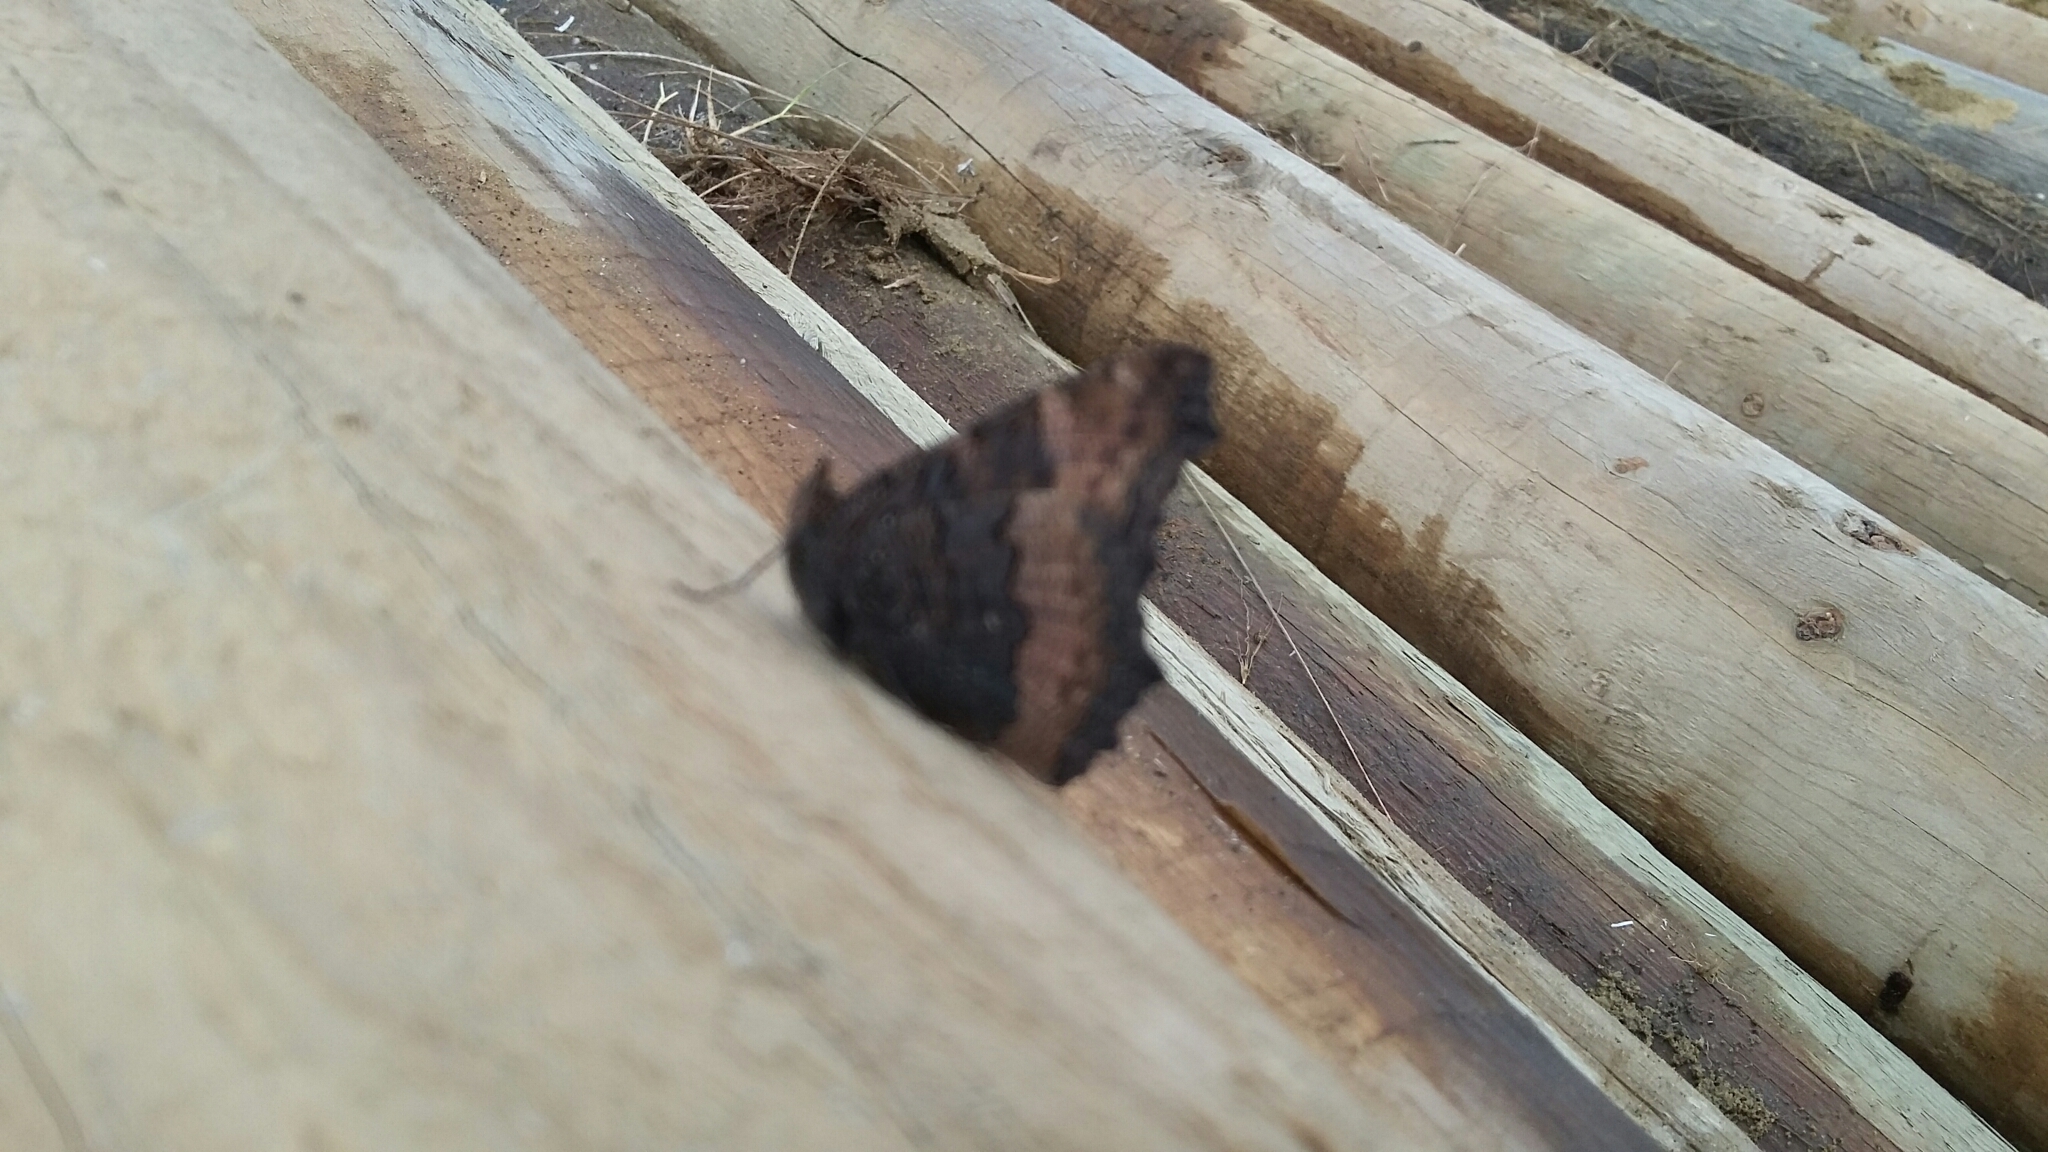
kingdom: Animalia
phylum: Arthropoda
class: Insecta
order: Lepidoptera
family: Nymphalidae
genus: Aglais
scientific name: Aglais milberti
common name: Milbert's tortoiseshell
